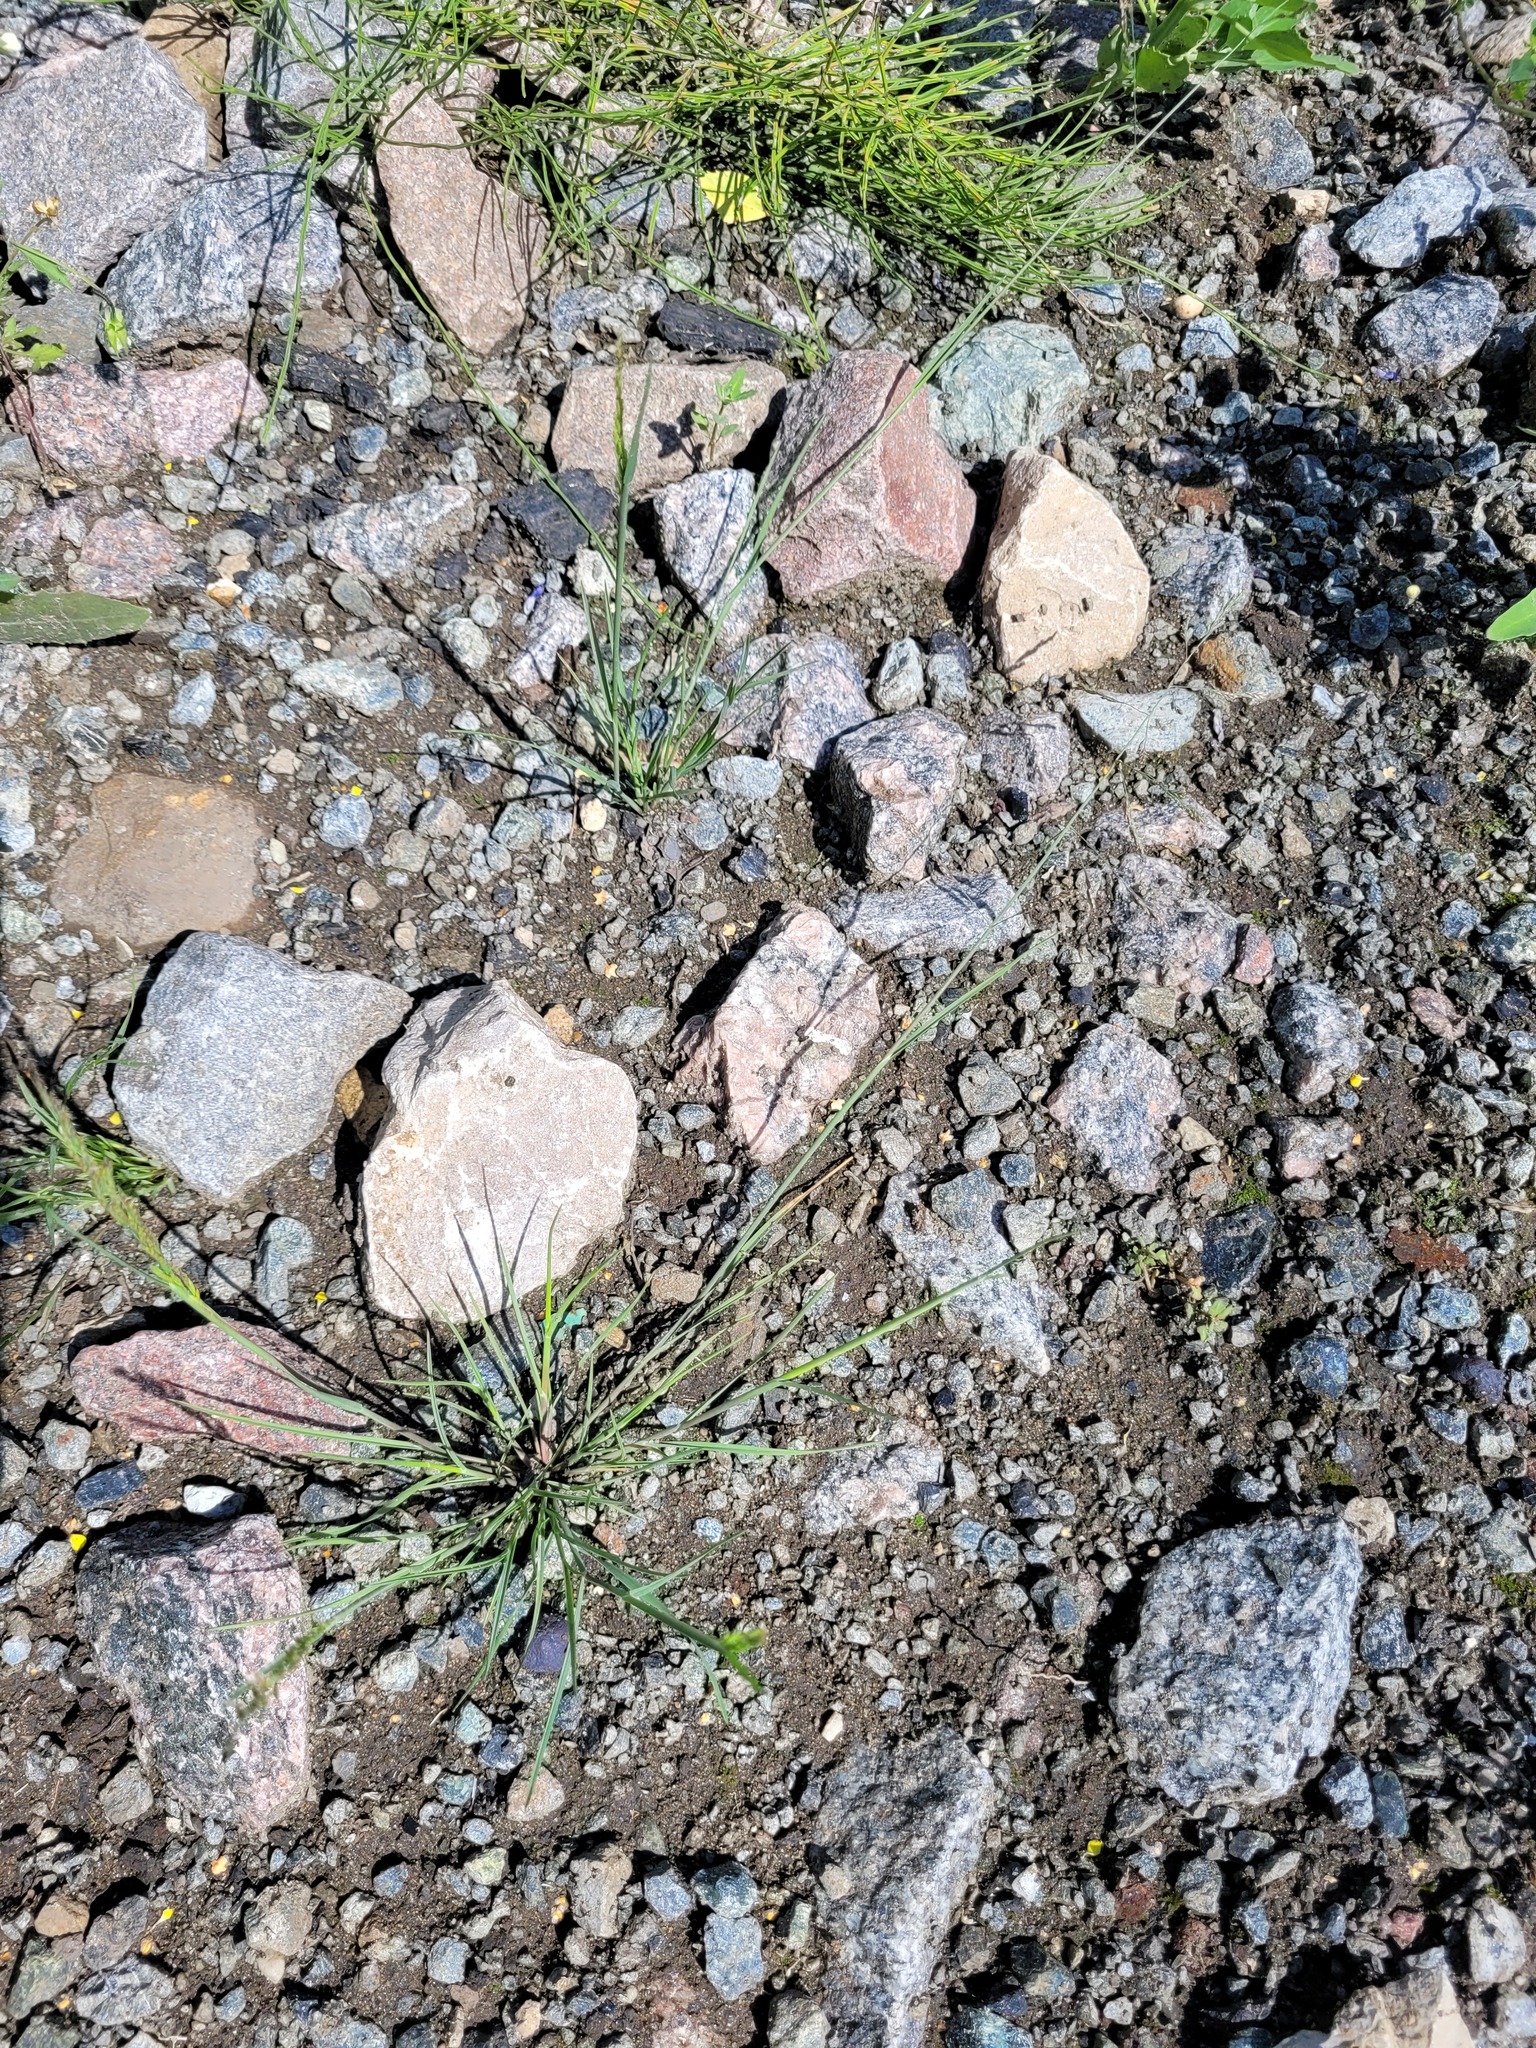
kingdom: Plantae
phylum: Tracheophyta
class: Liliopsida
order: Poales
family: Poaceae
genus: Puccinellia
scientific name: Puccinellia distans
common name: Weeping alkaligrass
